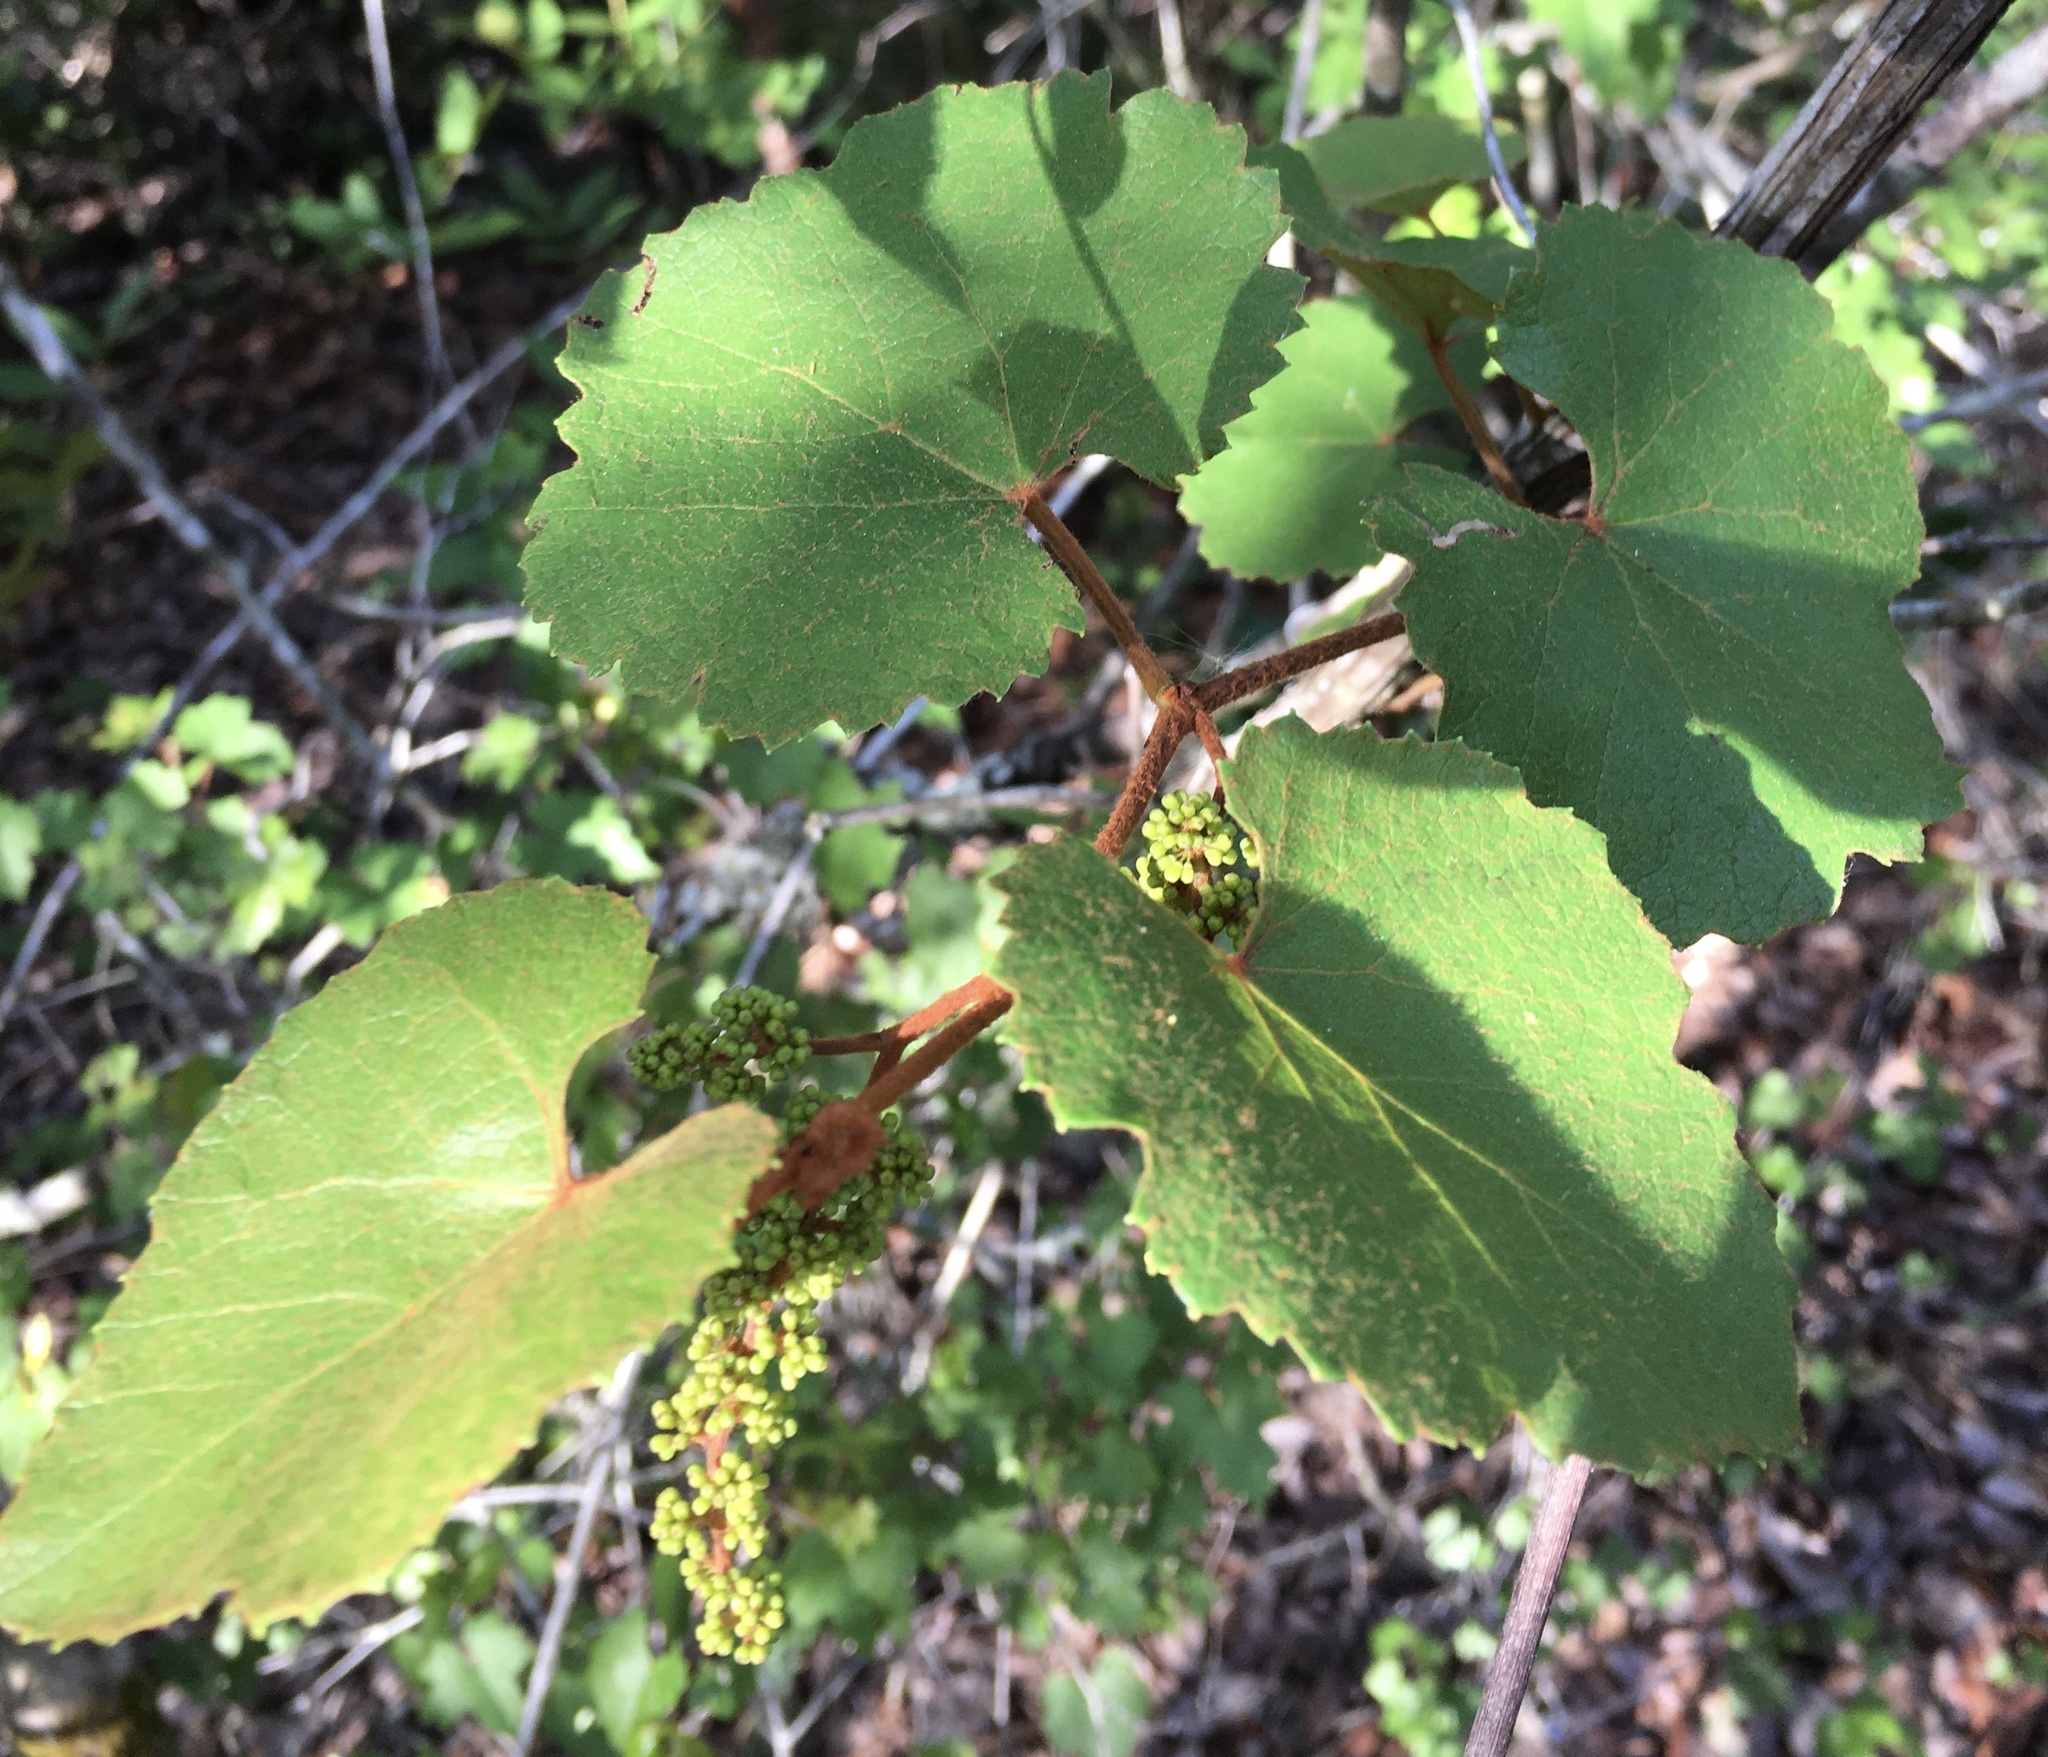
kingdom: Plantae
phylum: Tracheophyta
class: Magnoliopsida
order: Vitales
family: Vitaceae
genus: Vitis
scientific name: Vitis
